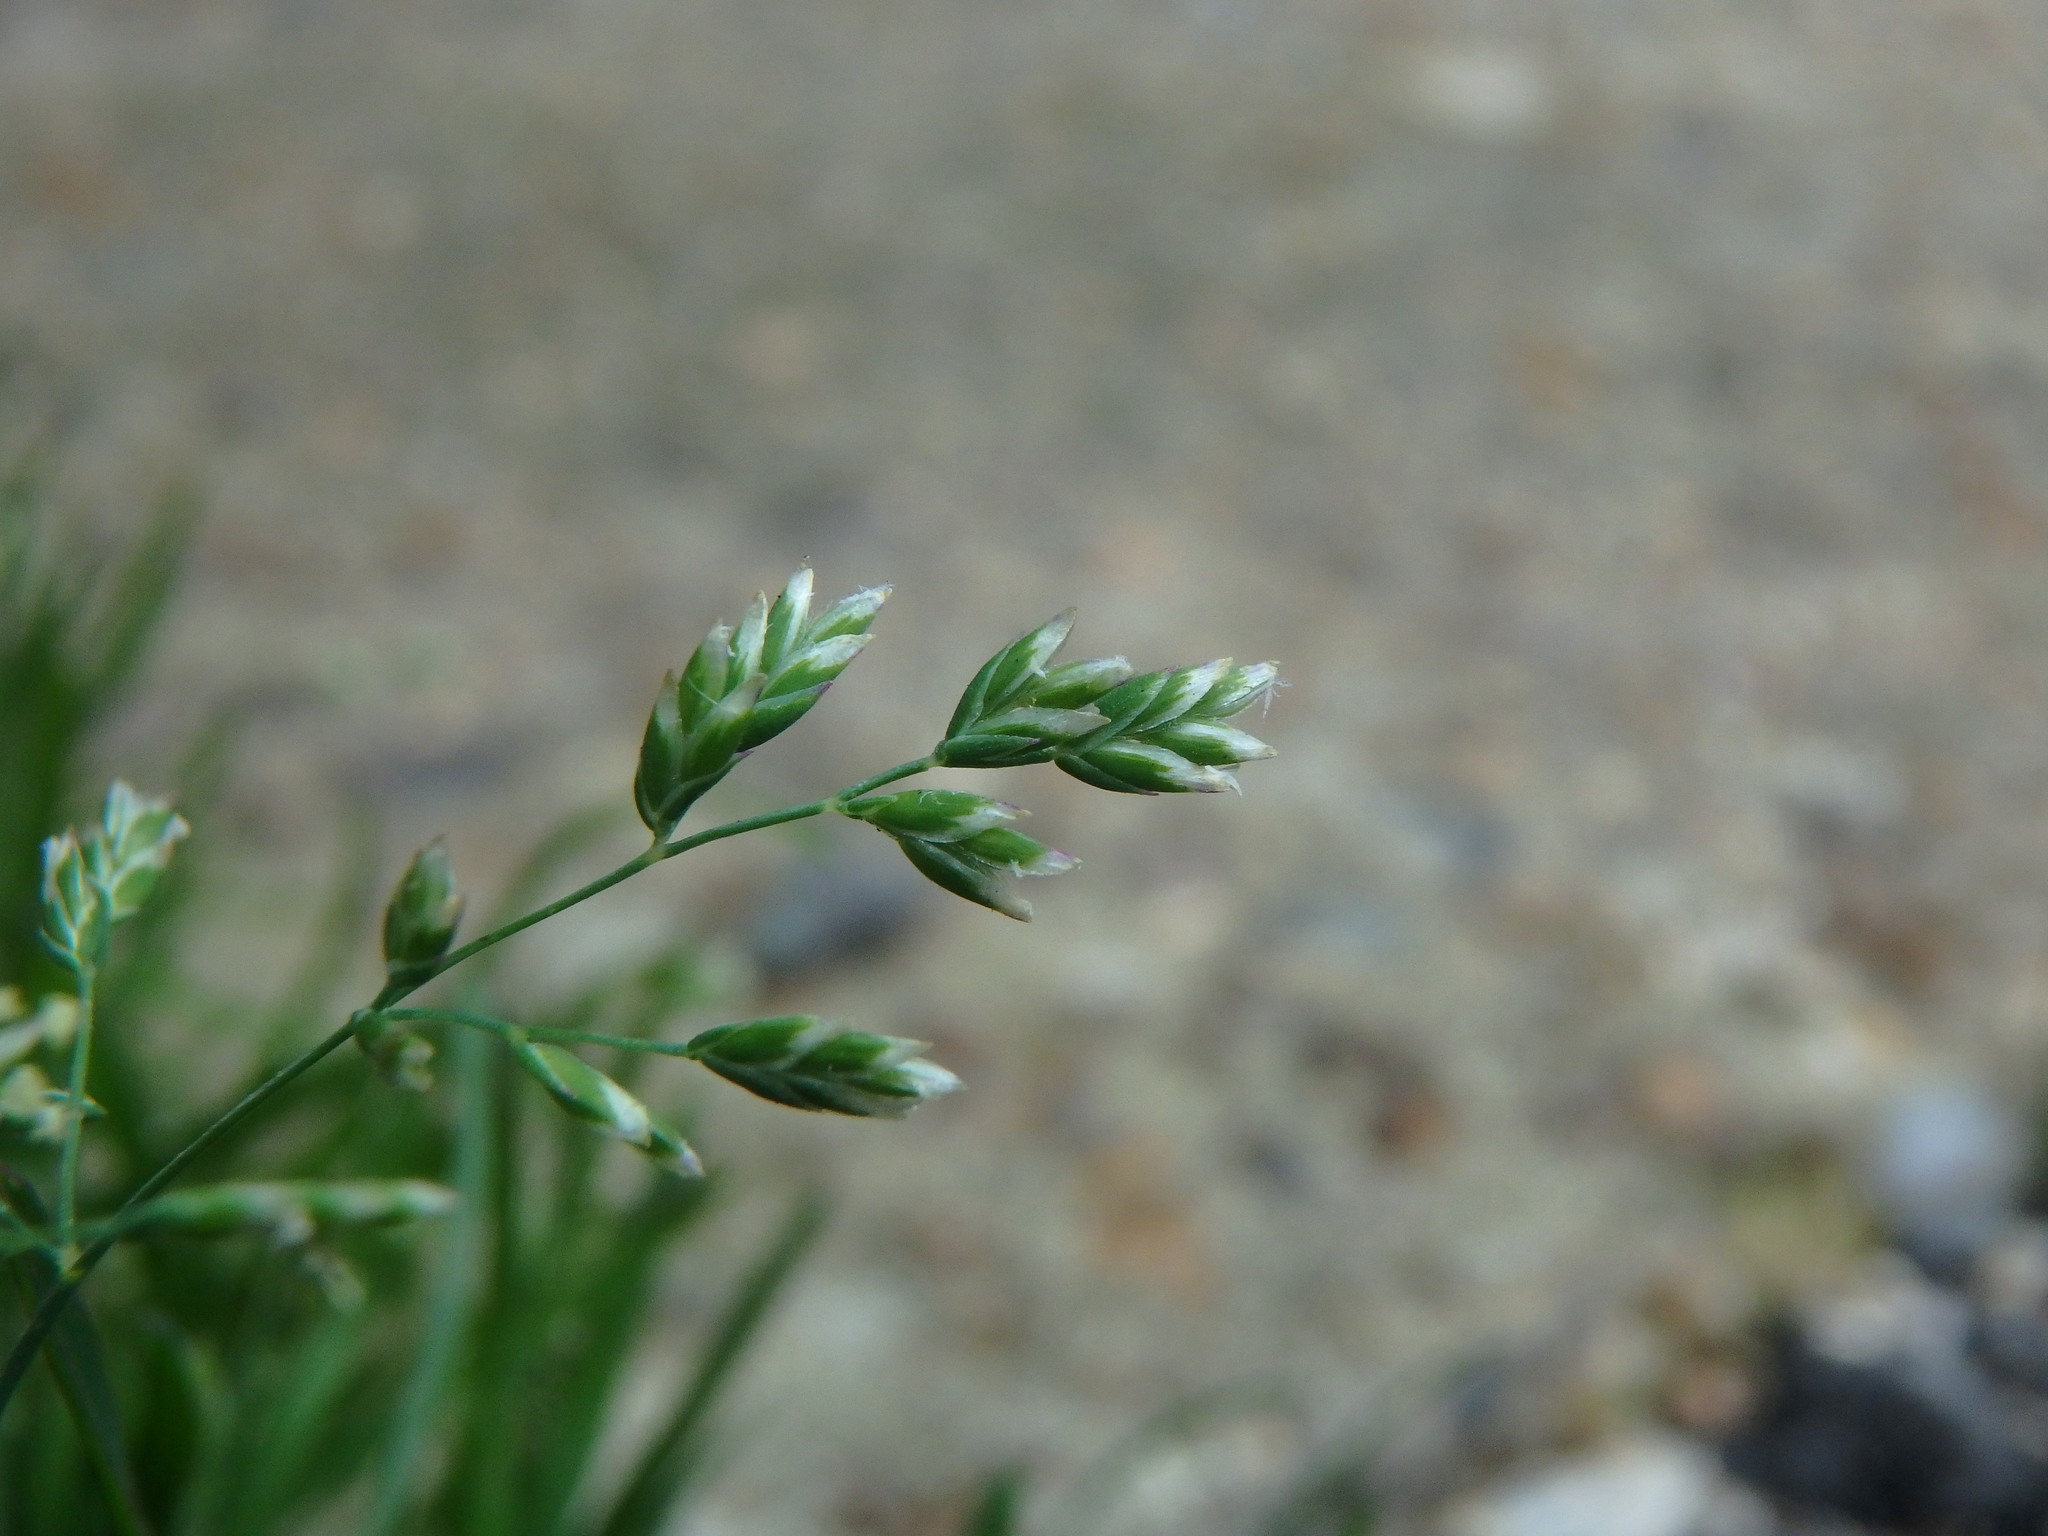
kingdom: Plantae
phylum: Tracheophyta
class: Liliopsida
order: Poales
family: Poaceae
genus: Poa
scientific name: Poa annua
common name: Annual bluegrass
